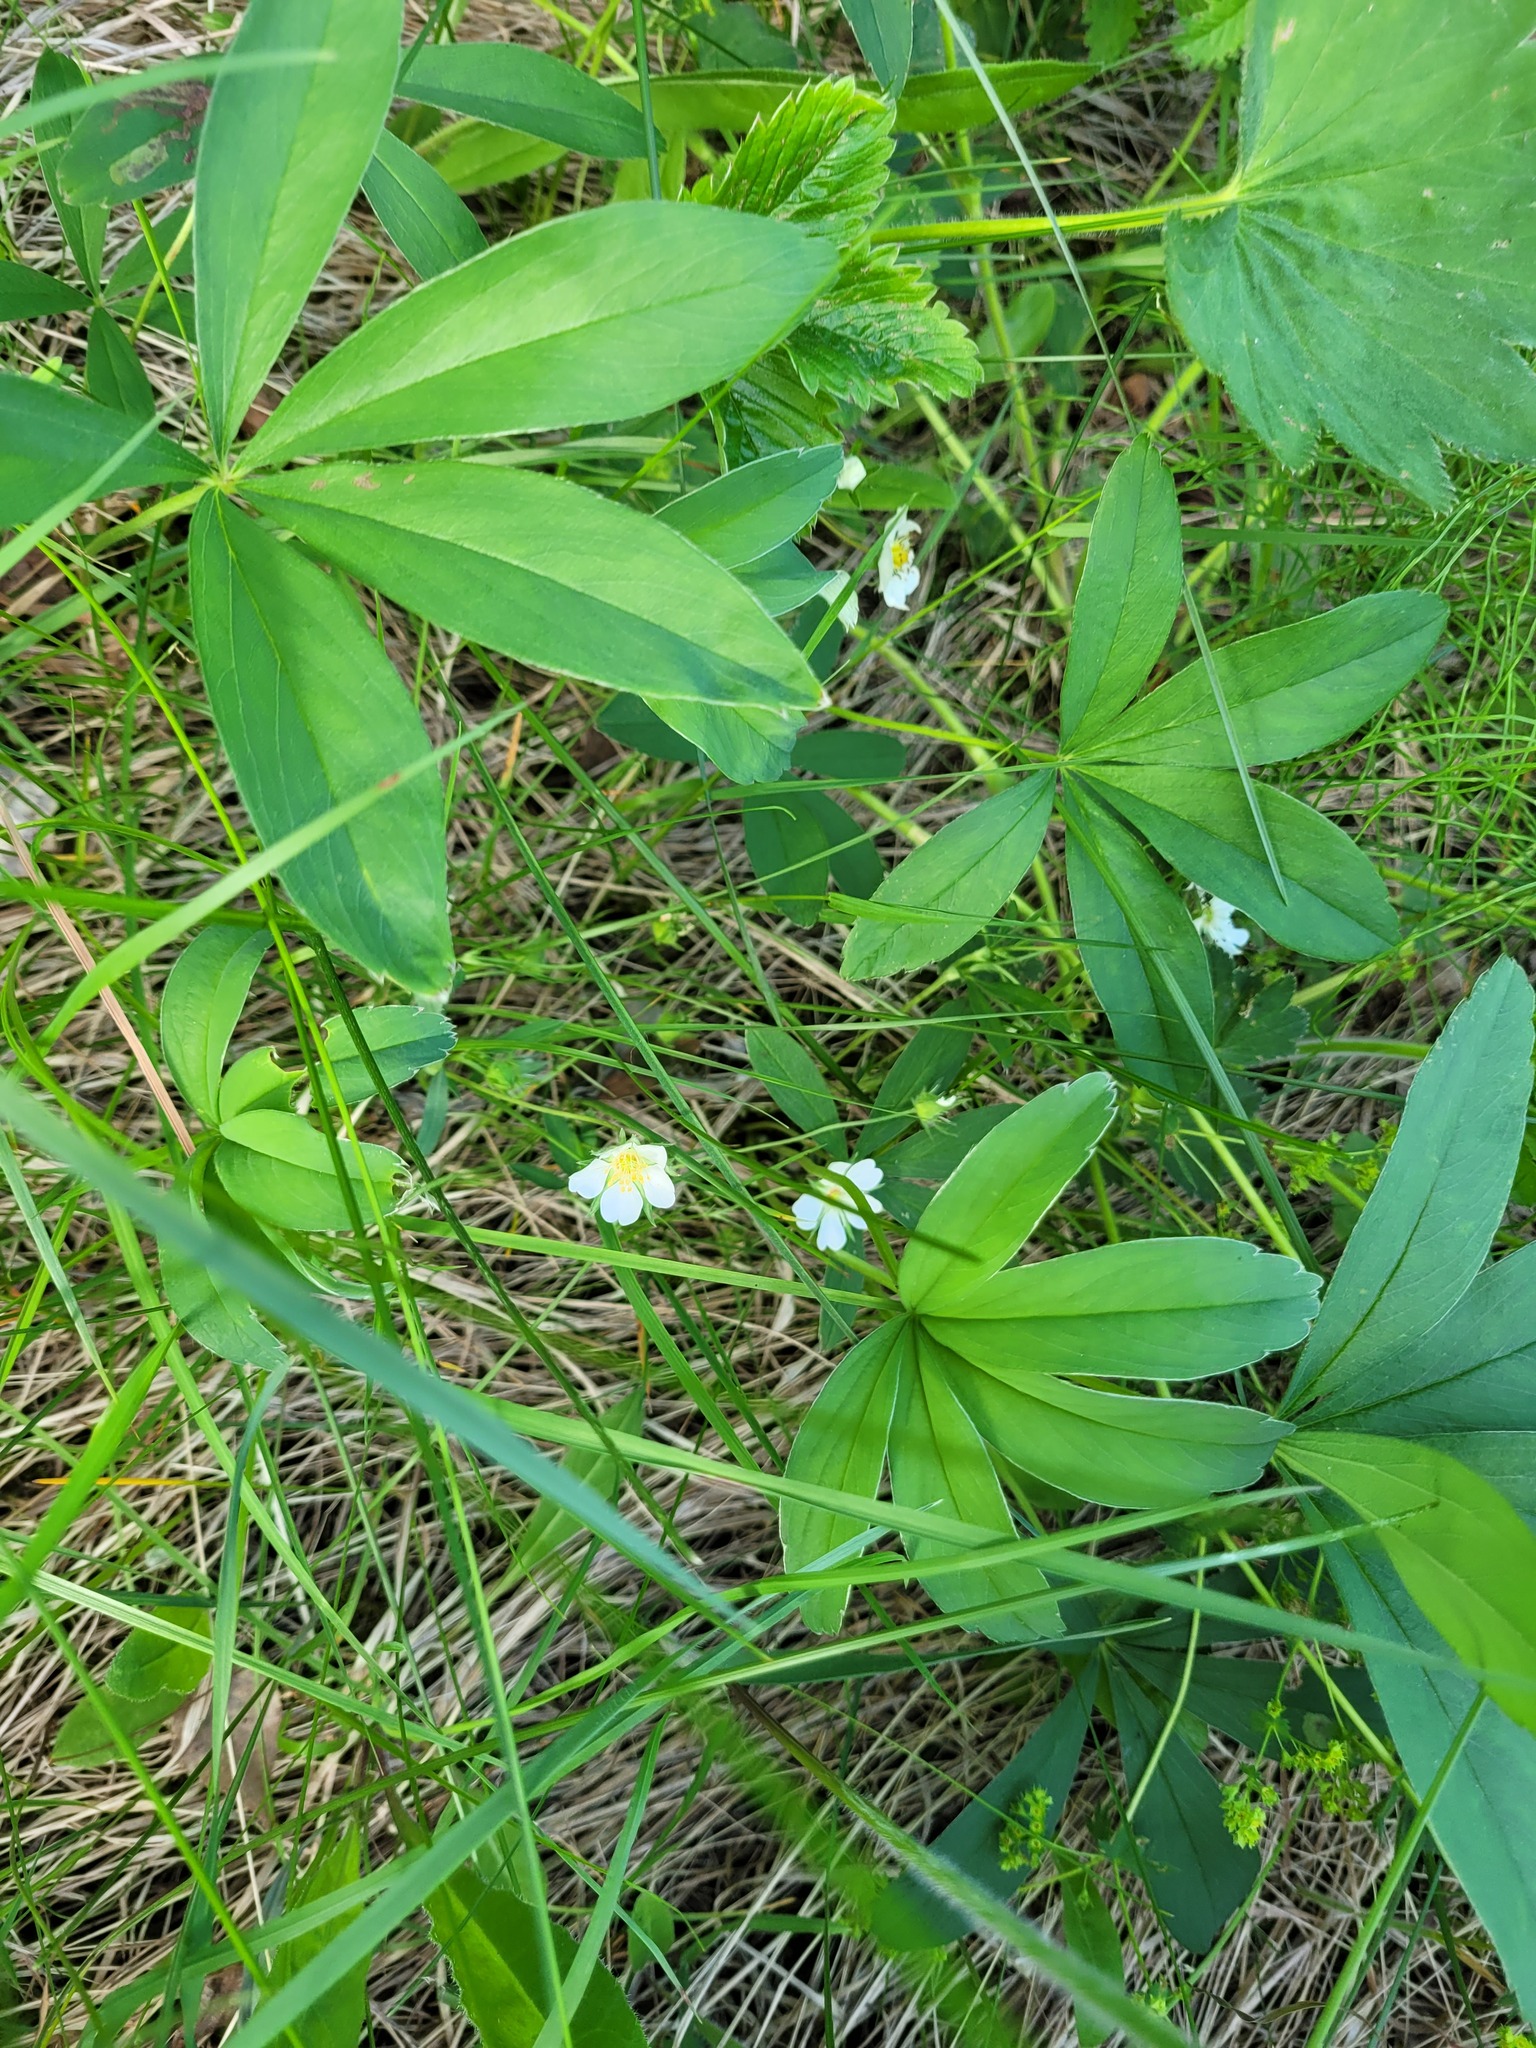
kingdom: Plantae
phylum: Tracheophyta
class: Magnoliopsida
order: Rosales
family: Rosaceae
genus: Potentilla
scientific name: Potentilla alba
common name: White cinquefoil
